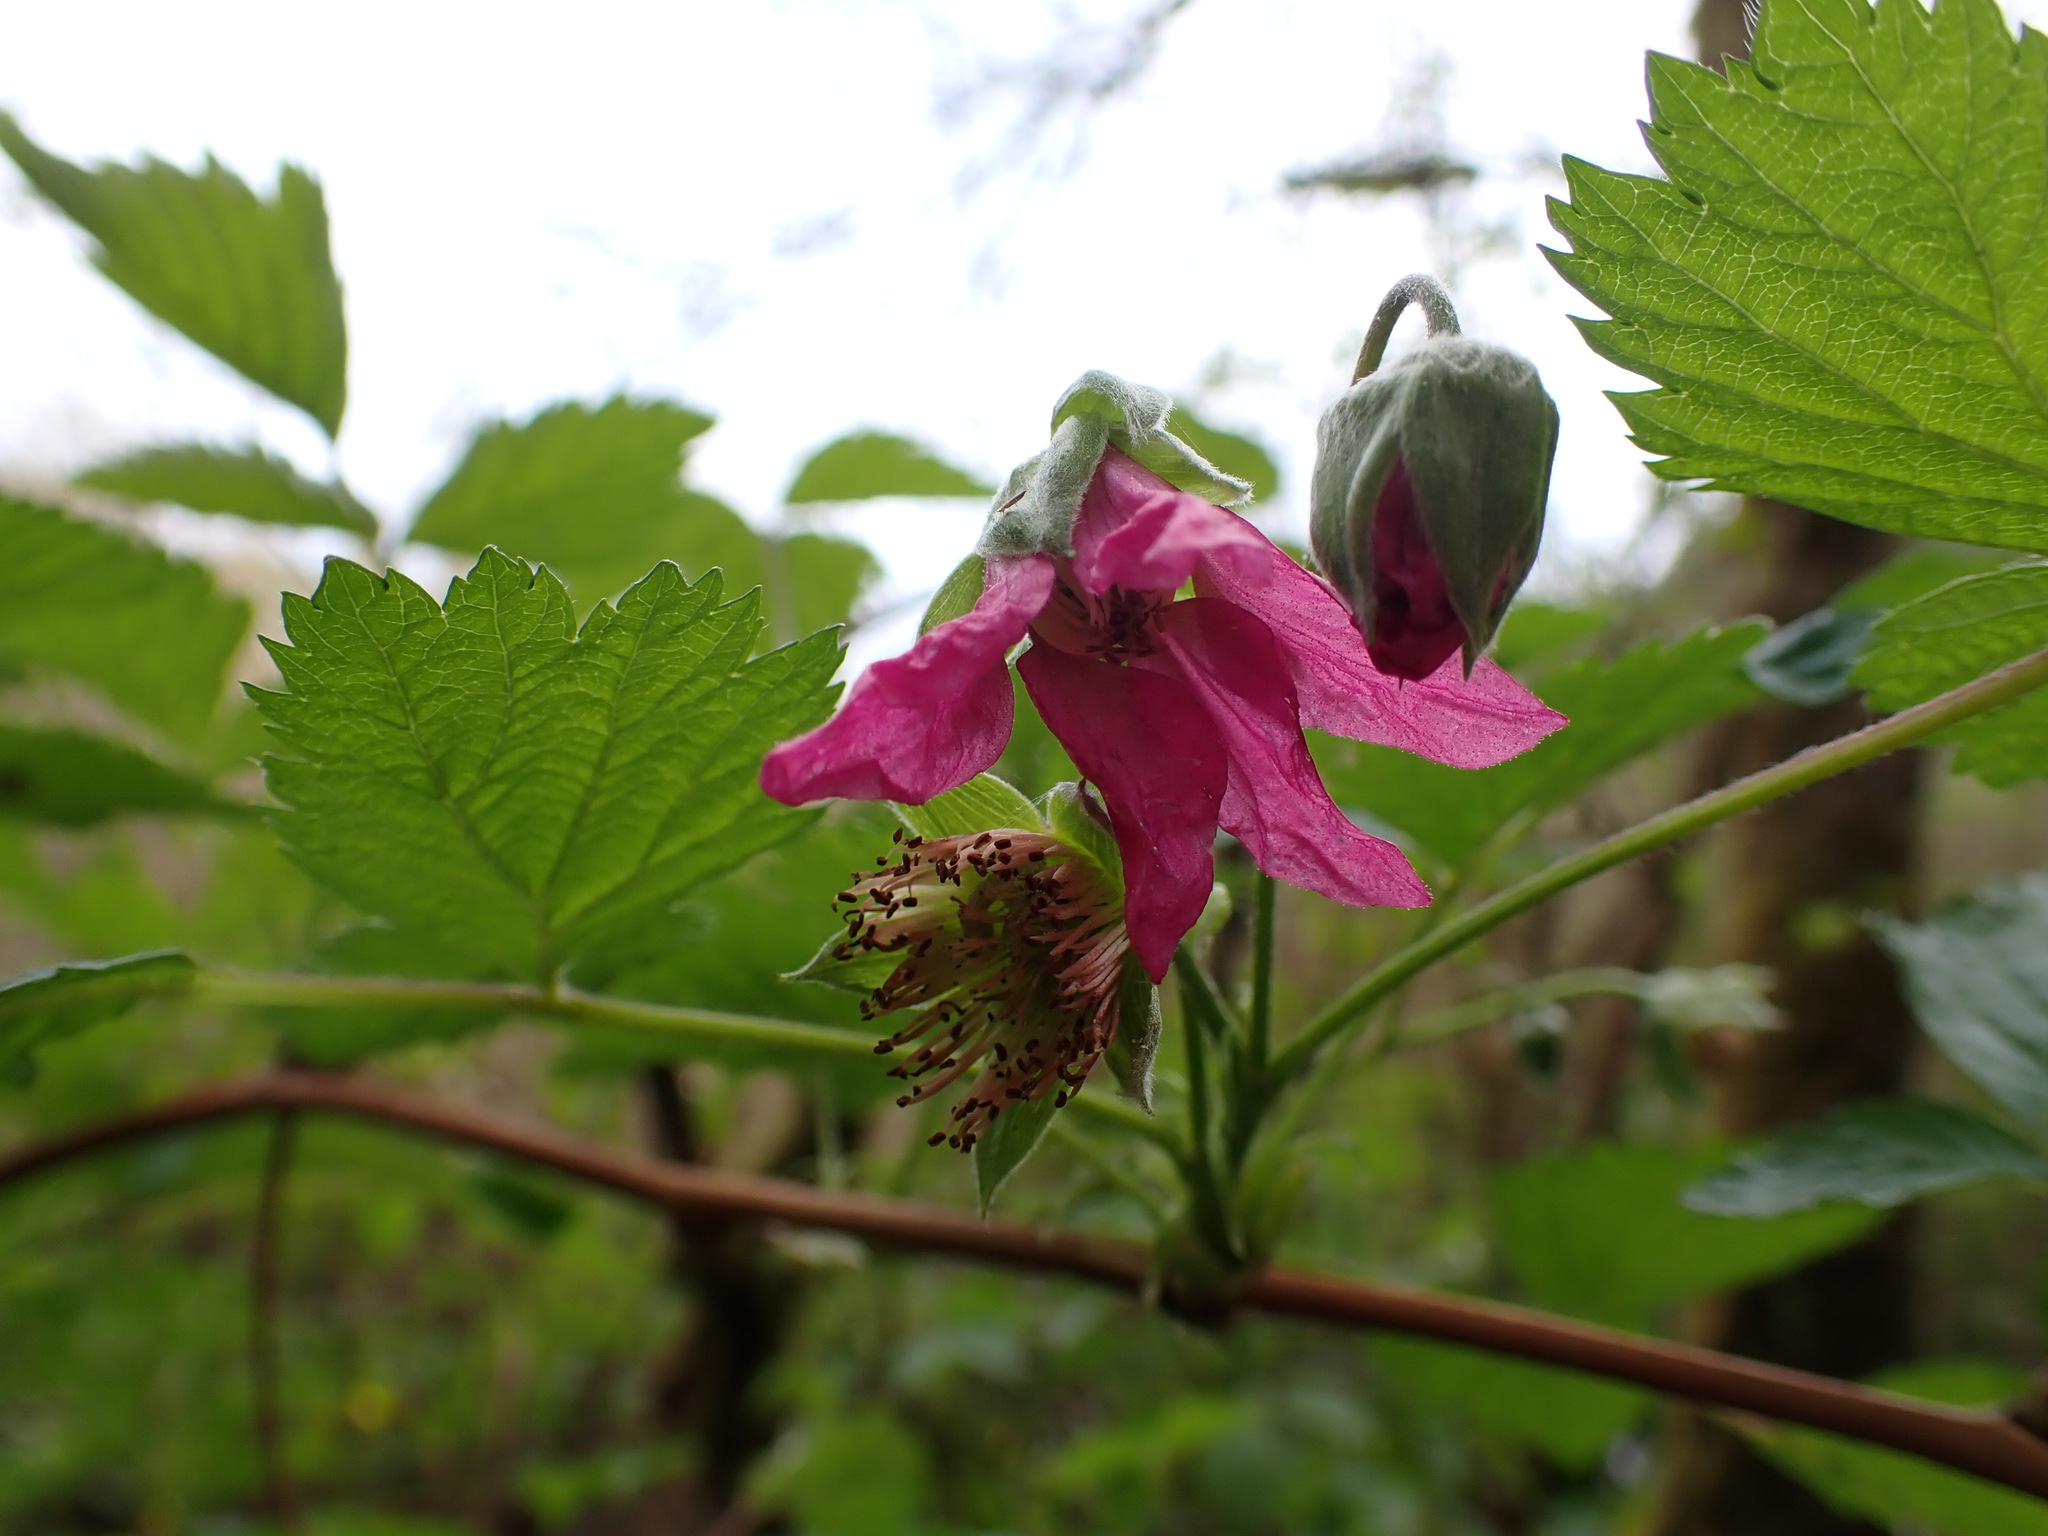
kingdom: Plantae
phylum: Tracheophyta
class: Magnoliopsida
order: Rosales
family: Rosaceae
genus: Rubus
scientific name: Rubus spectabilis
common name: Salmonberry
